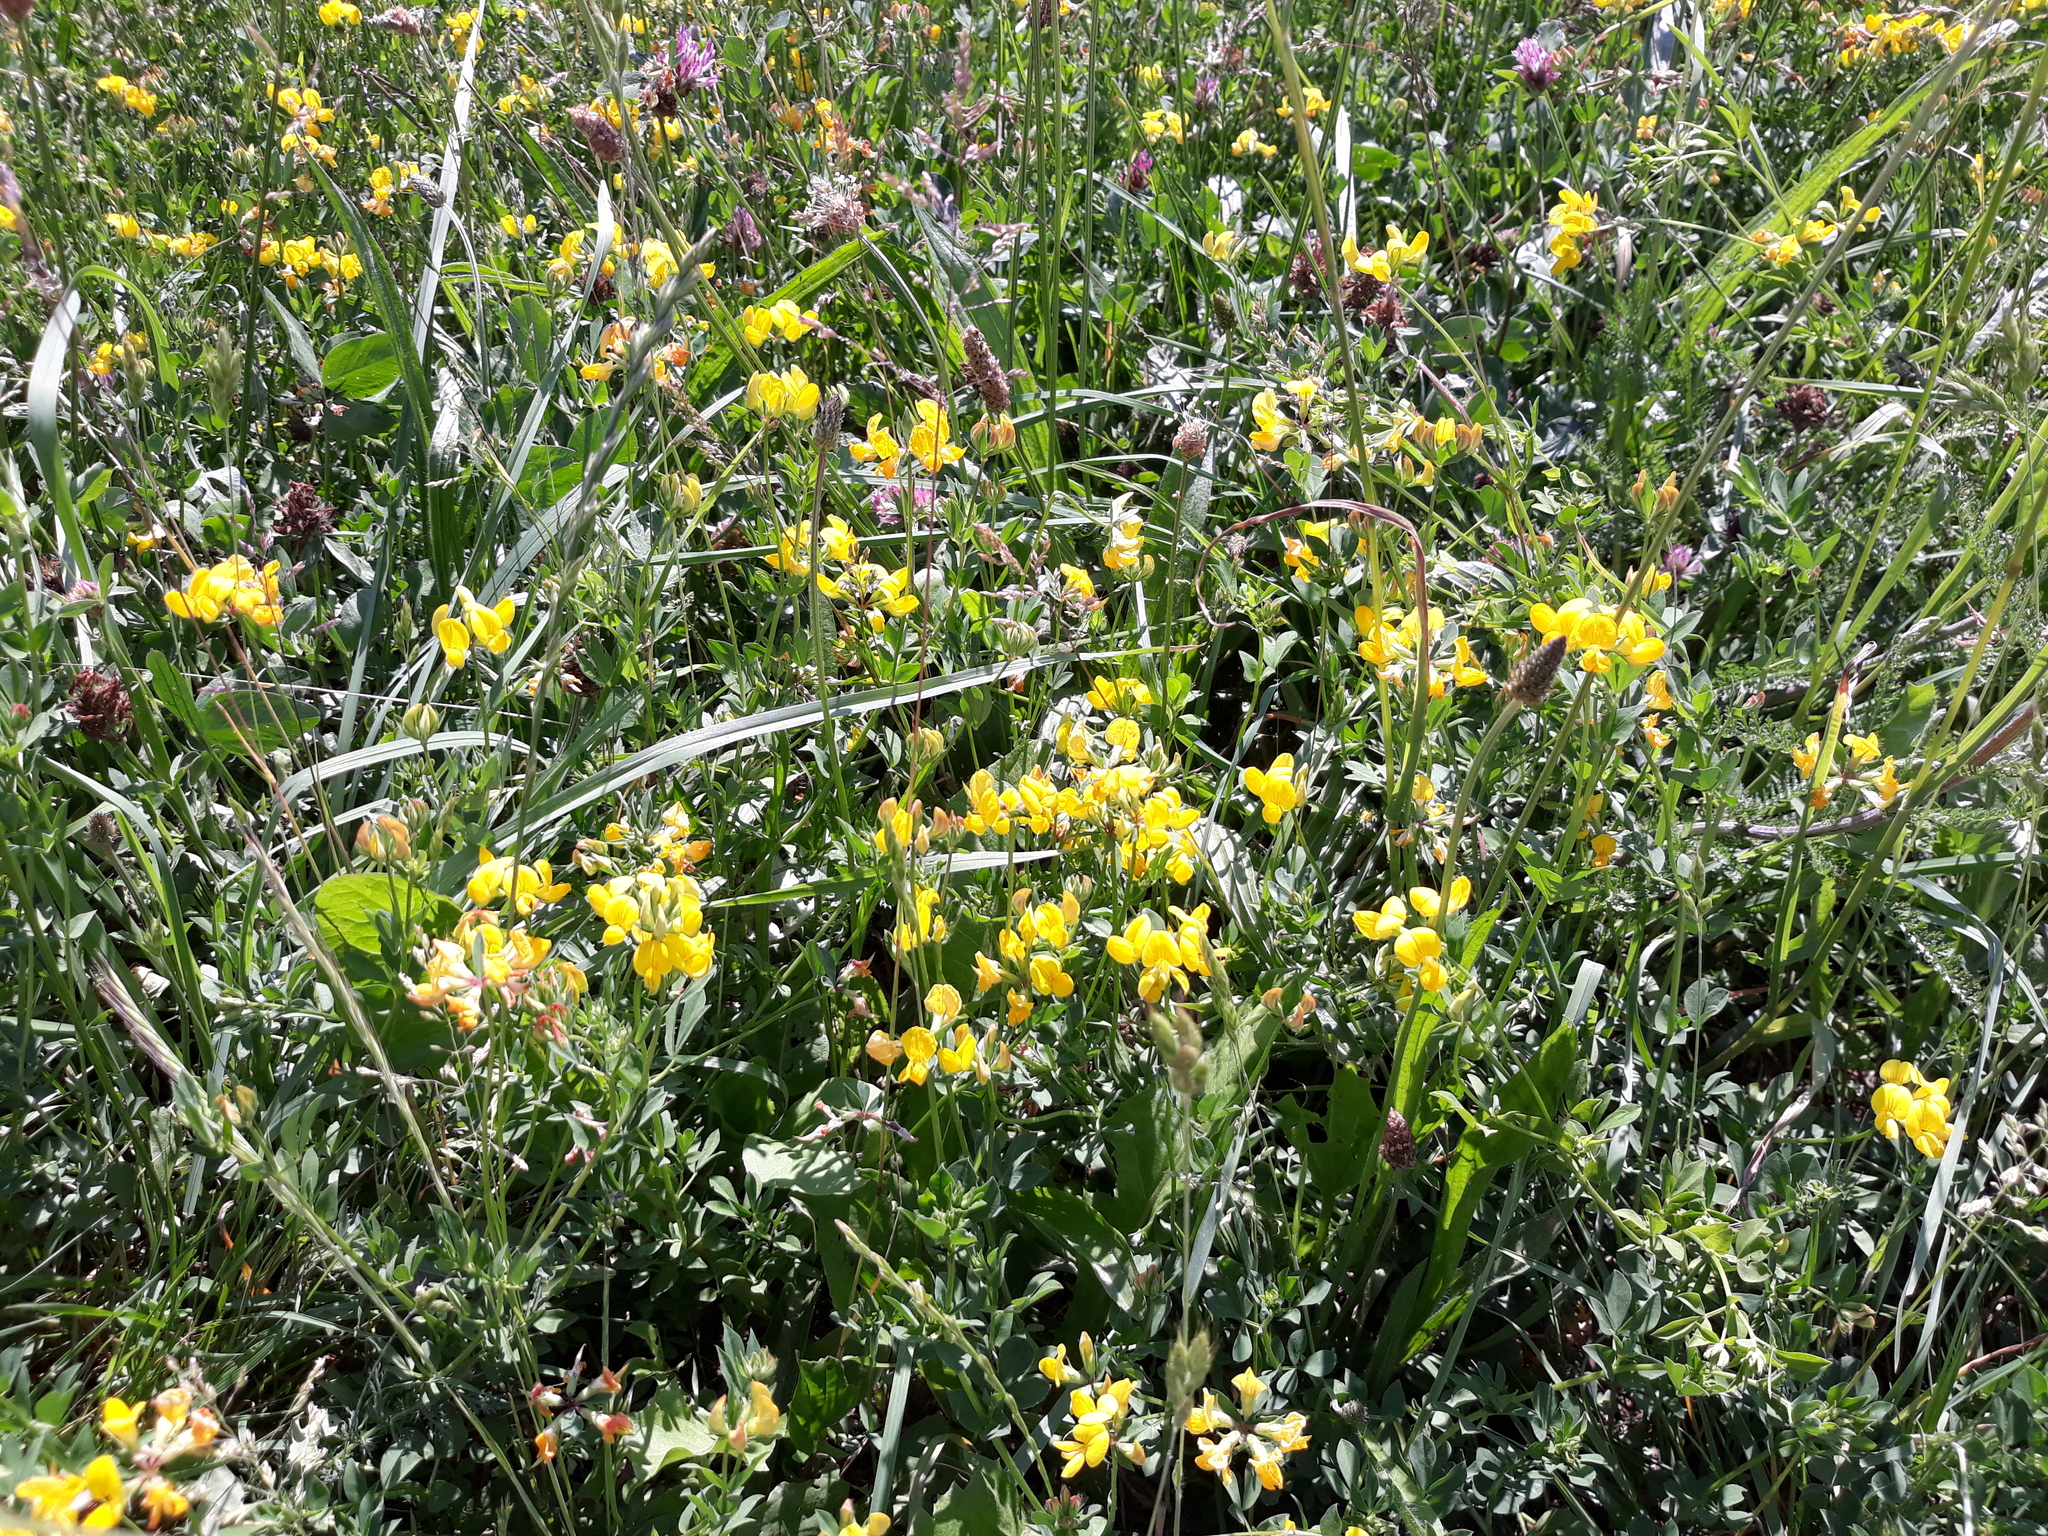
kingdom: Plantae
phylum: Tracheophyta
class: Magnoliopsida
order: Fabales
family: Fabaceae
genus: Lotus
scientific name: Lotus corniculatus
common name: Common bird's-foot-trefoil
